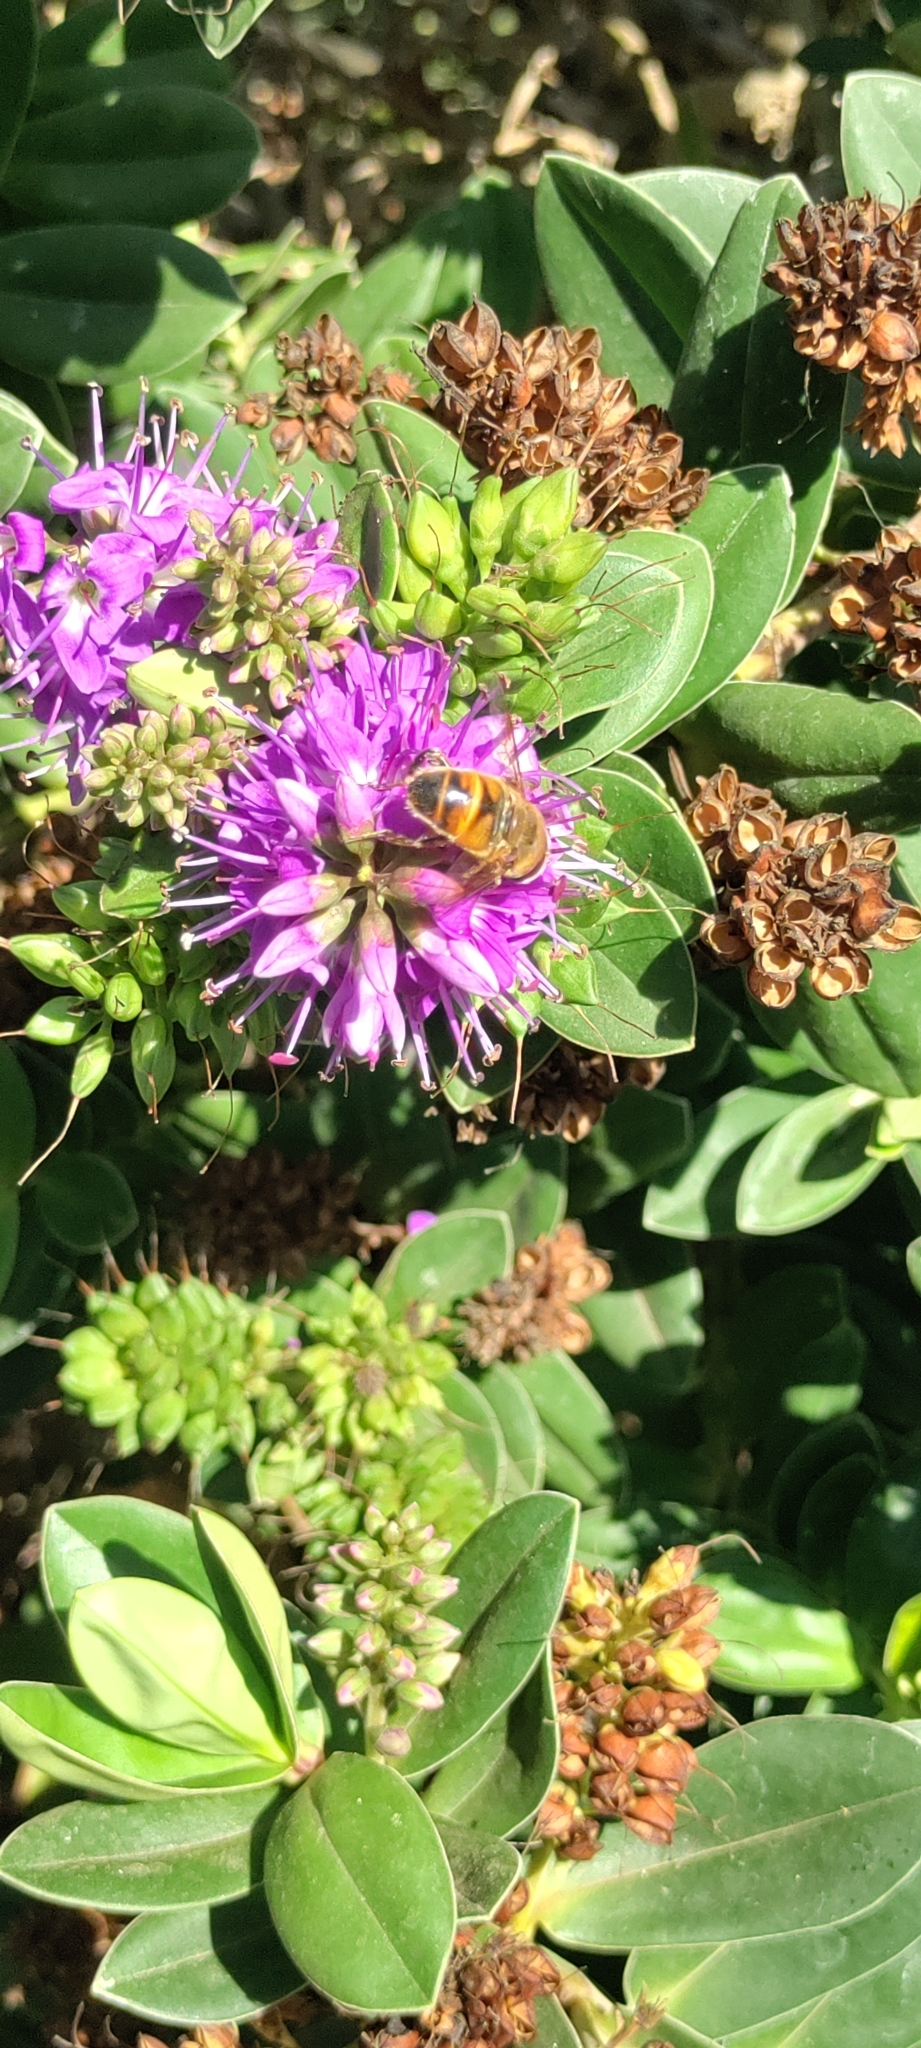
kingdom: Animalia
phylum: Arthropoda
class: Insecta
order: Diptera
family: Syrphidae
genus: Eristalis
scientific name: Eristalis tenax
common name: Drone fly
